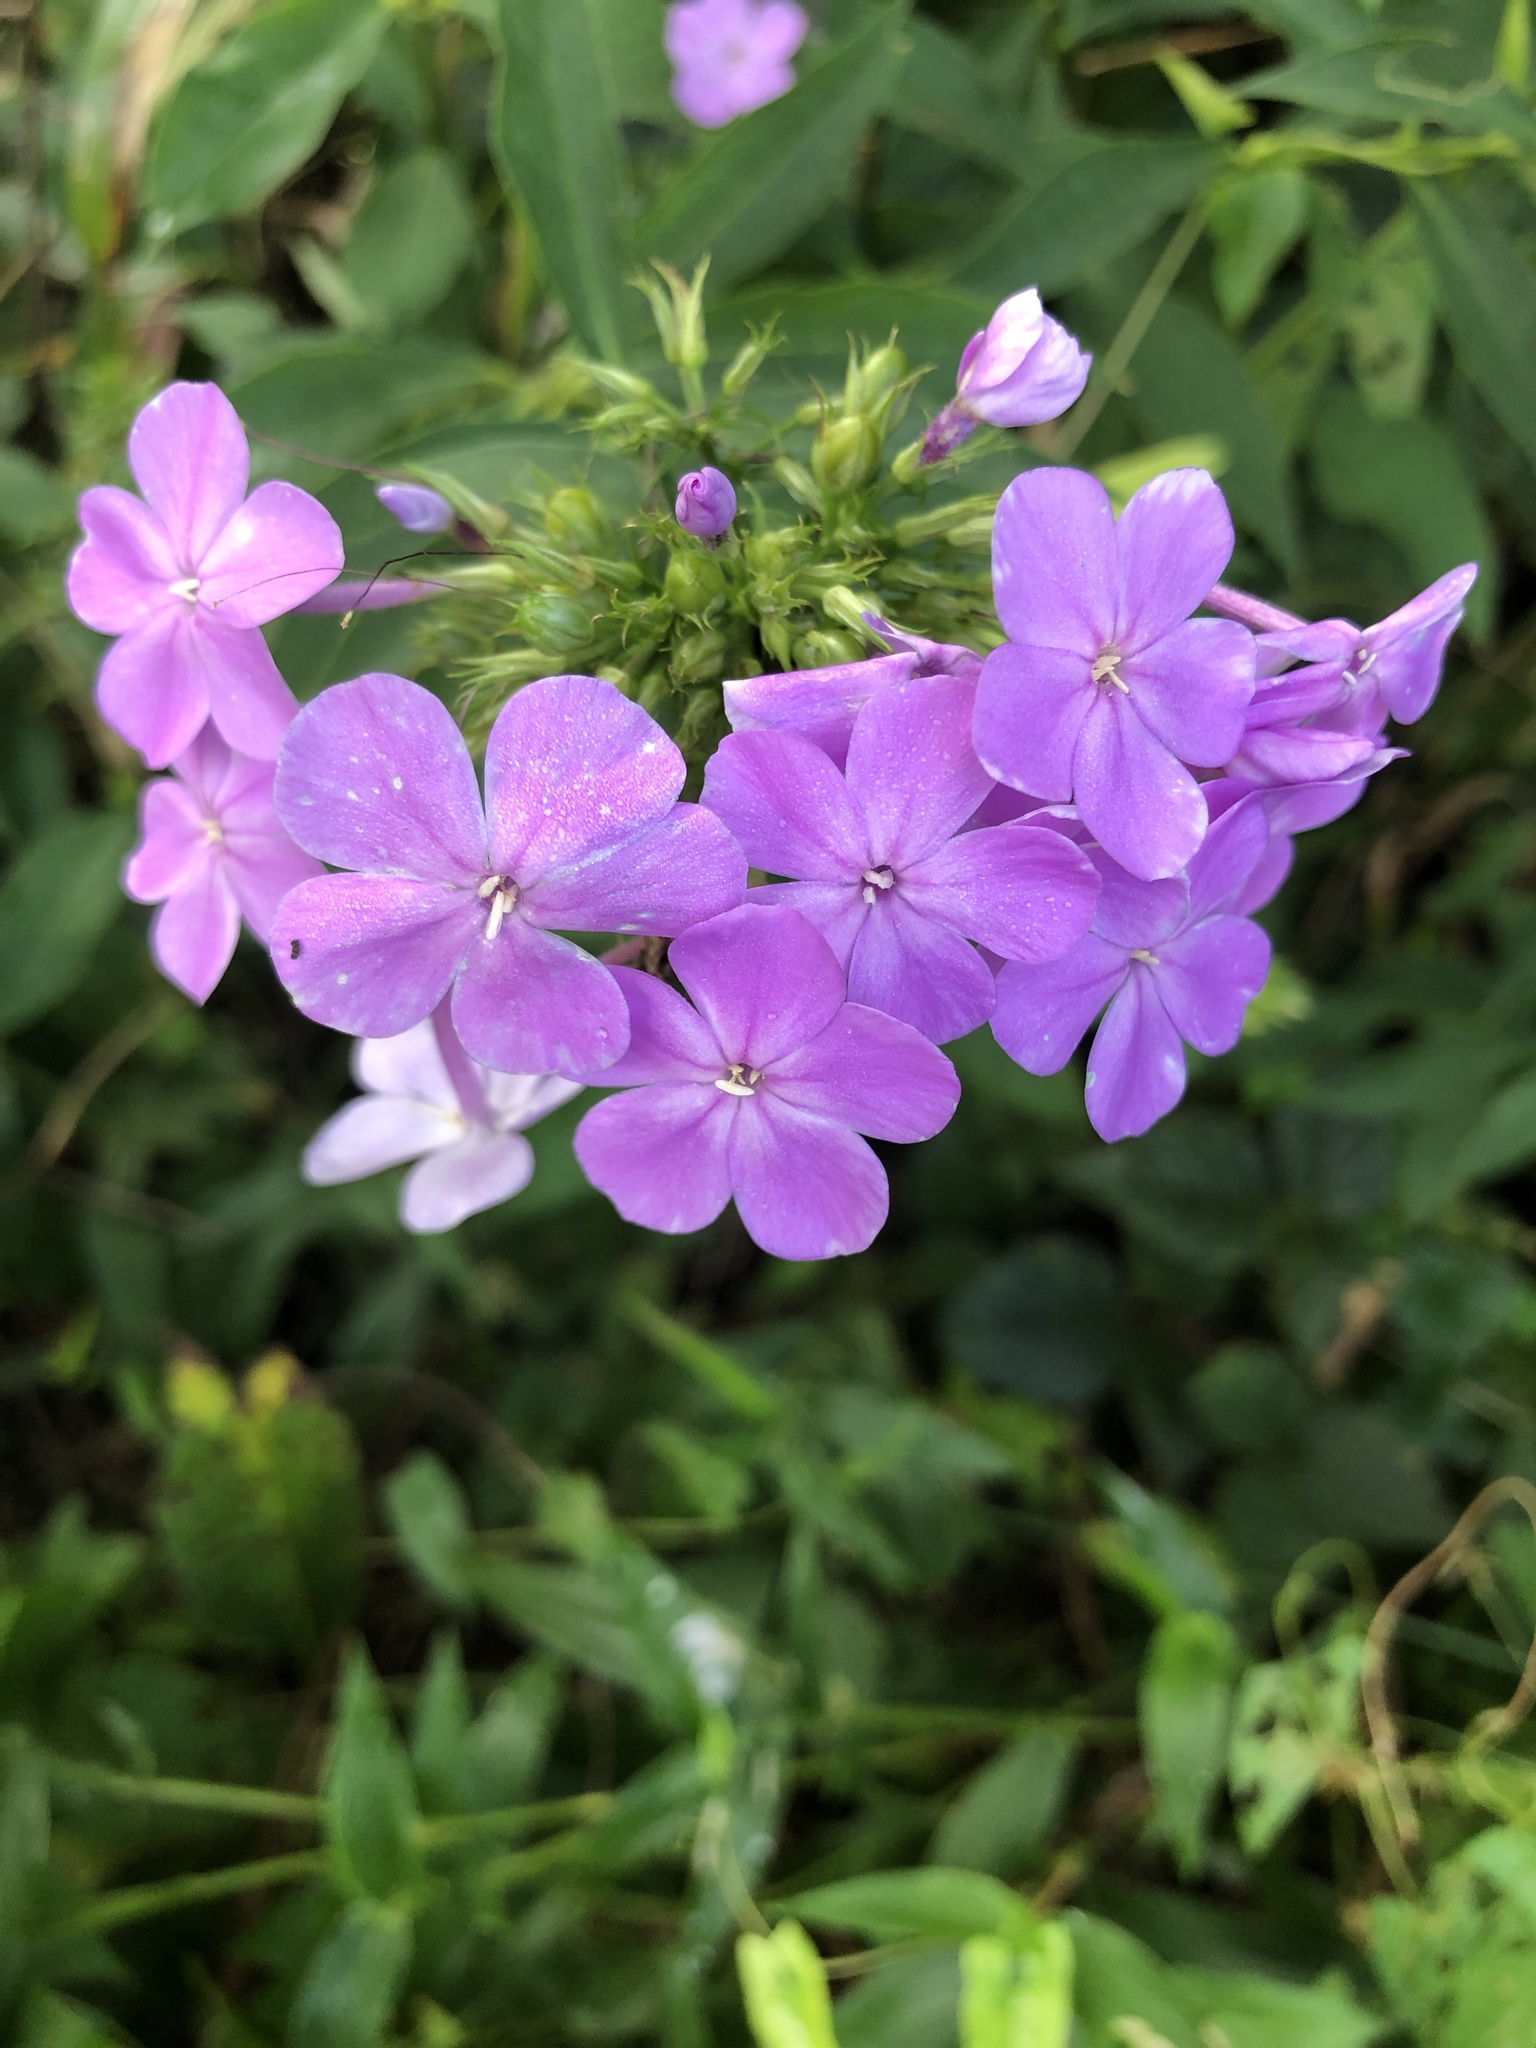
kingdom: Plantae
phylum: Tracheophyta
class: Magnoliopsida
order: Ericales
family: Polemoniaceae
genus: Phlox
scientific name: Phlox paniculata
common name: Fall phlox
